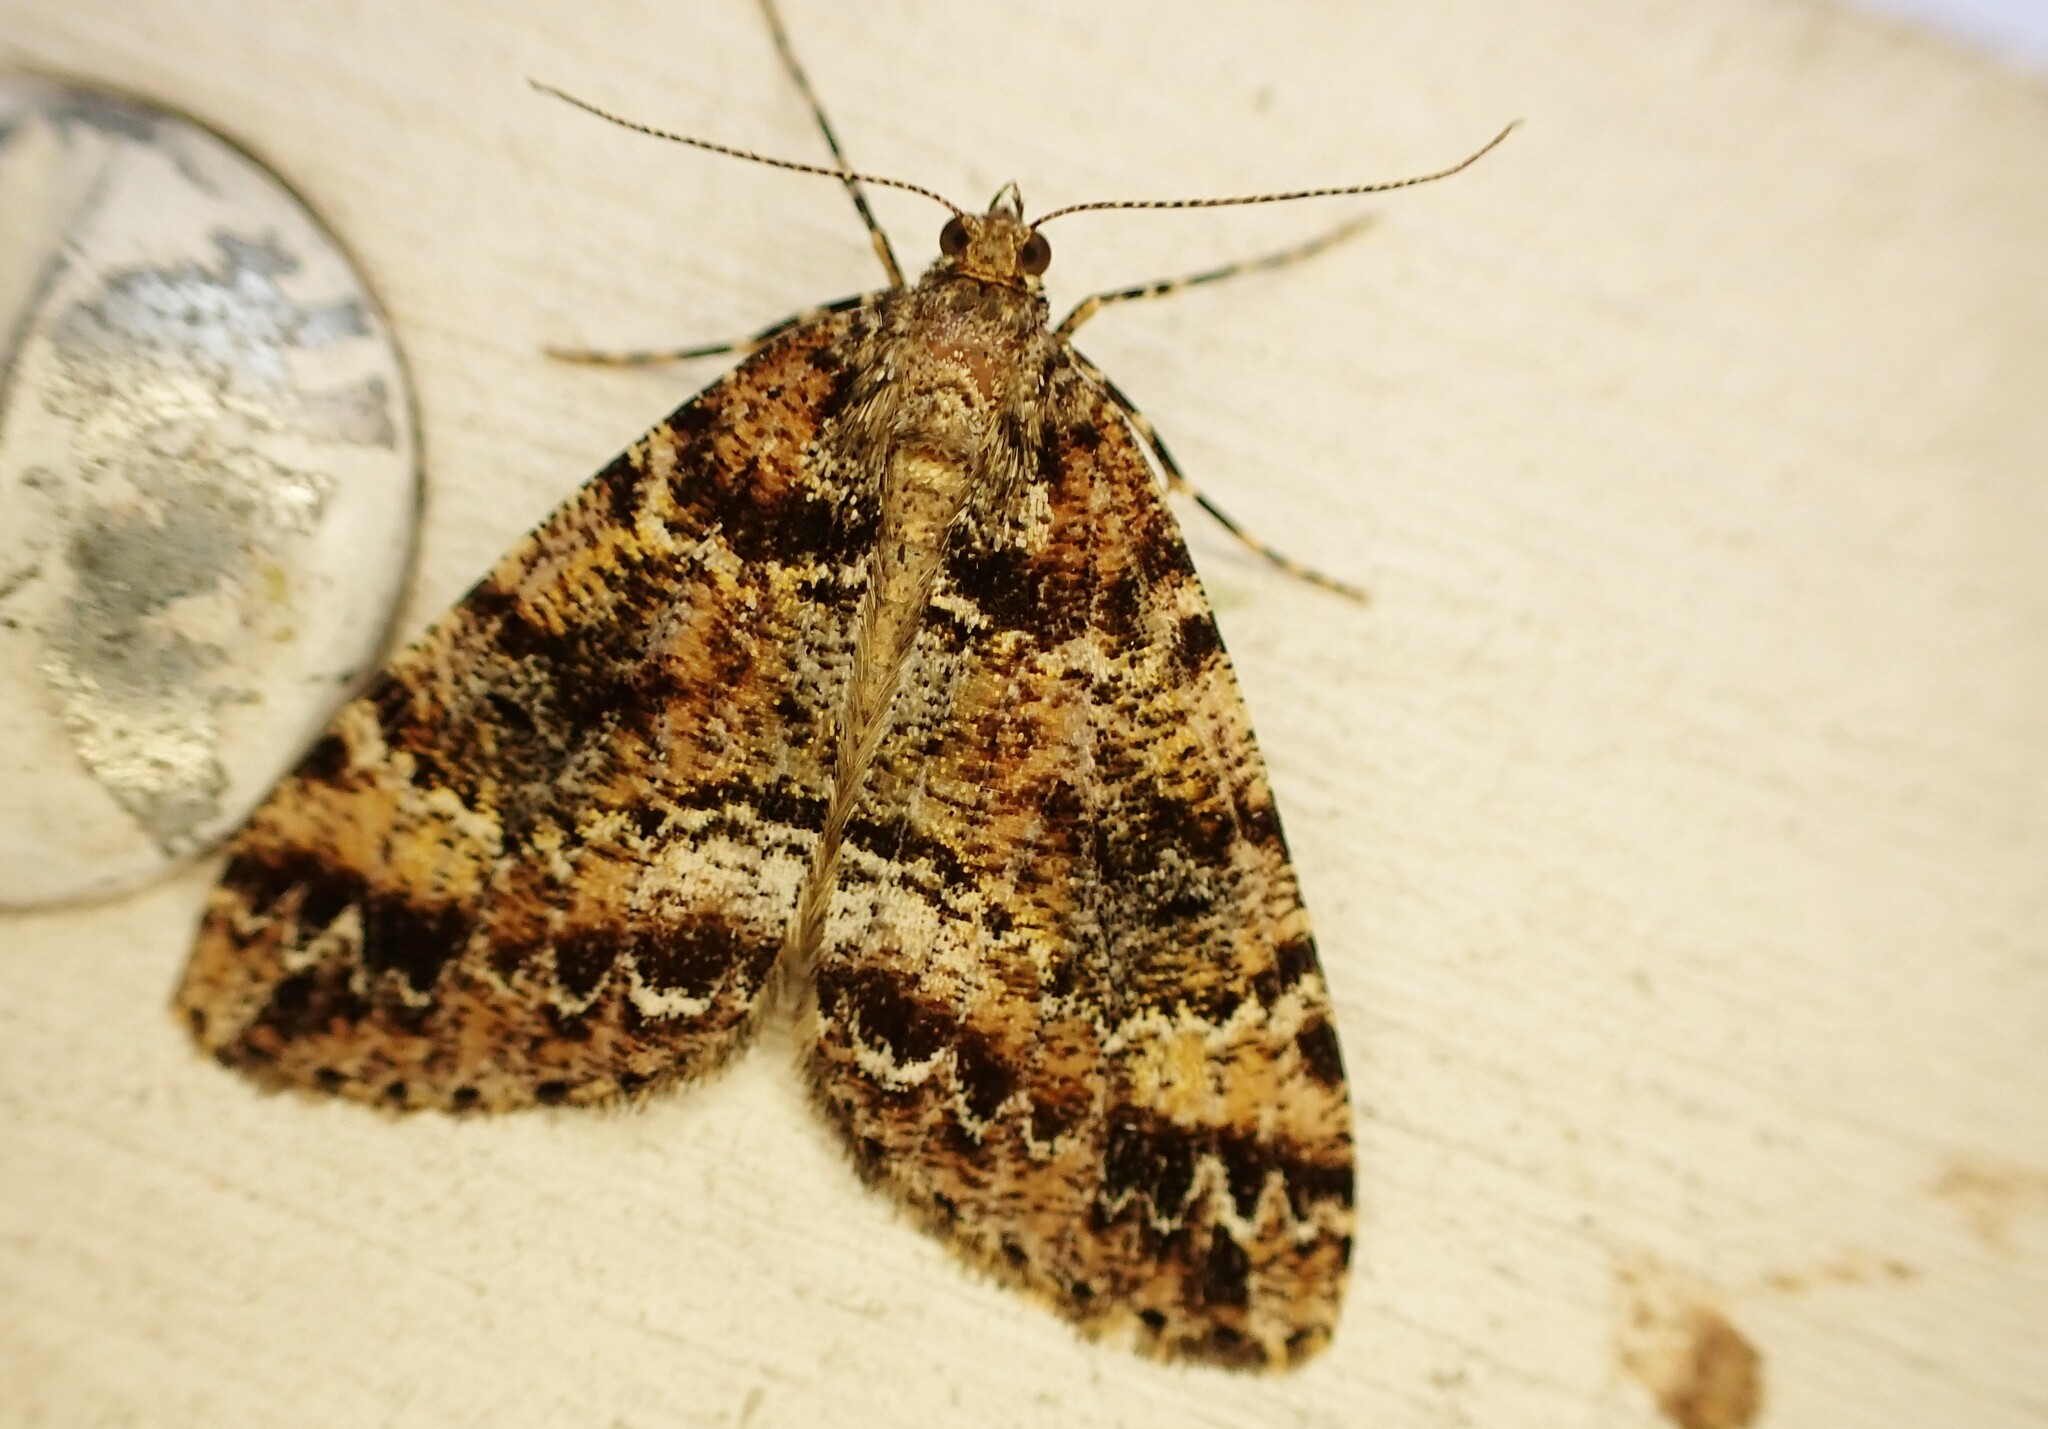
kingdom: Animalia
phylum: Arthropoda
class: Insecta
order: Lepidoptera
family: Geometridae
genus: Pseudocoremia
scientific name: Pseudocoremia productata
